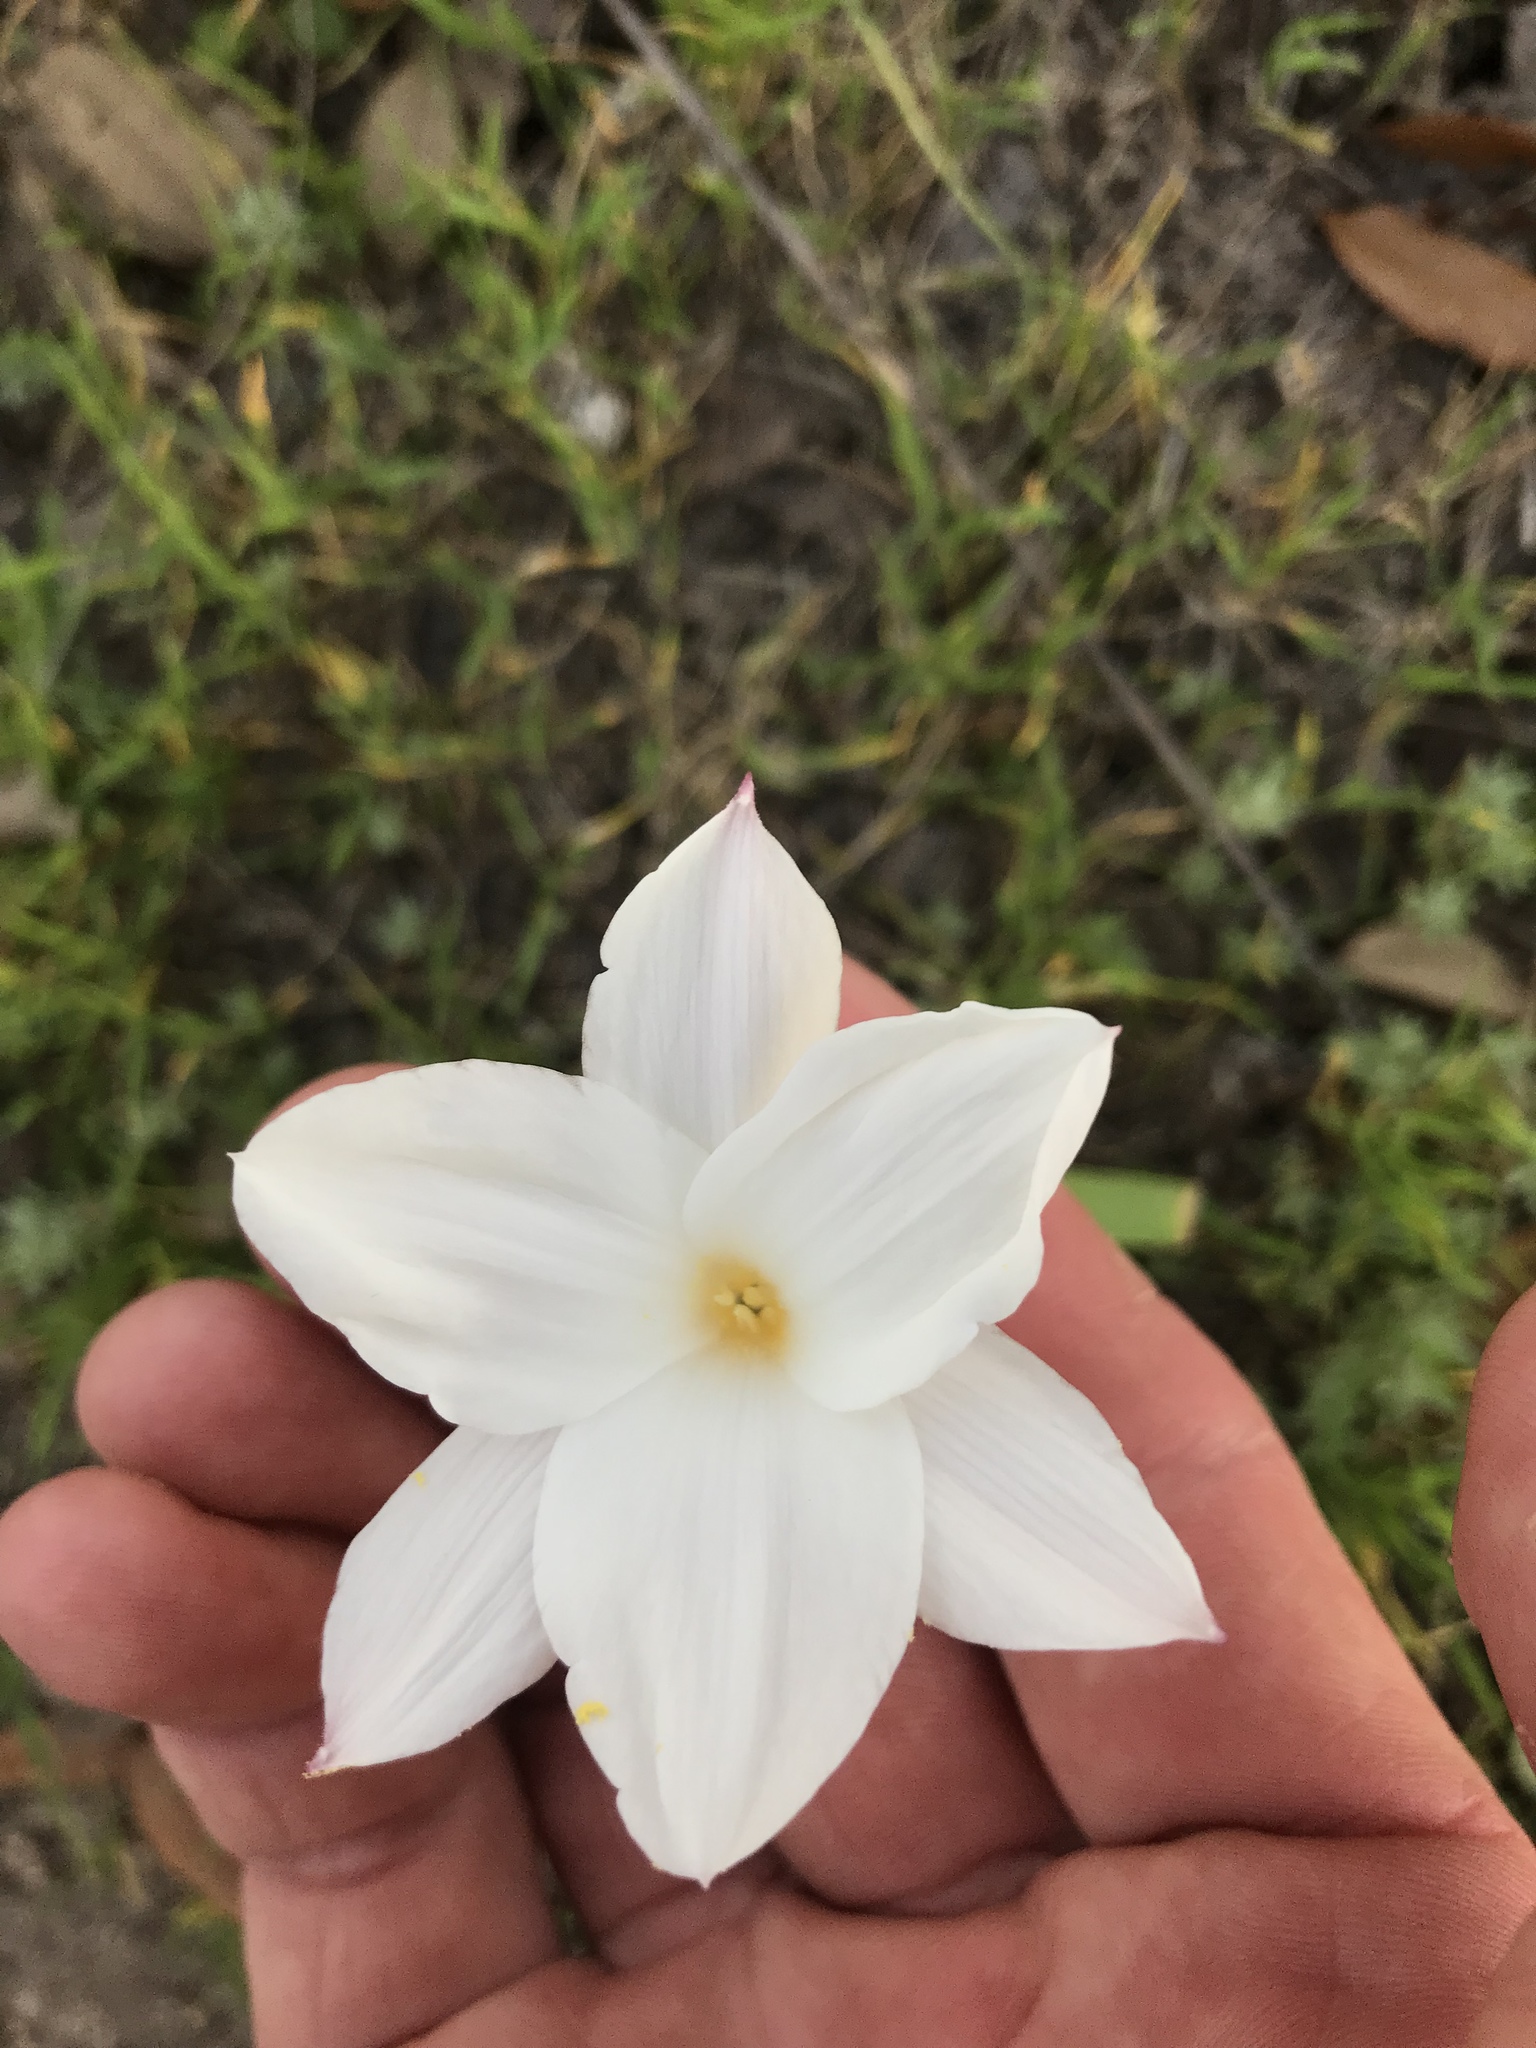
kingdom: Plantae
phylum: Tracheophyta
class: Liliopsida
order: Asparagales
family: Amaryllidaceae
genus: Zephyranthes
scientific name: Zephyranthes drummondii
